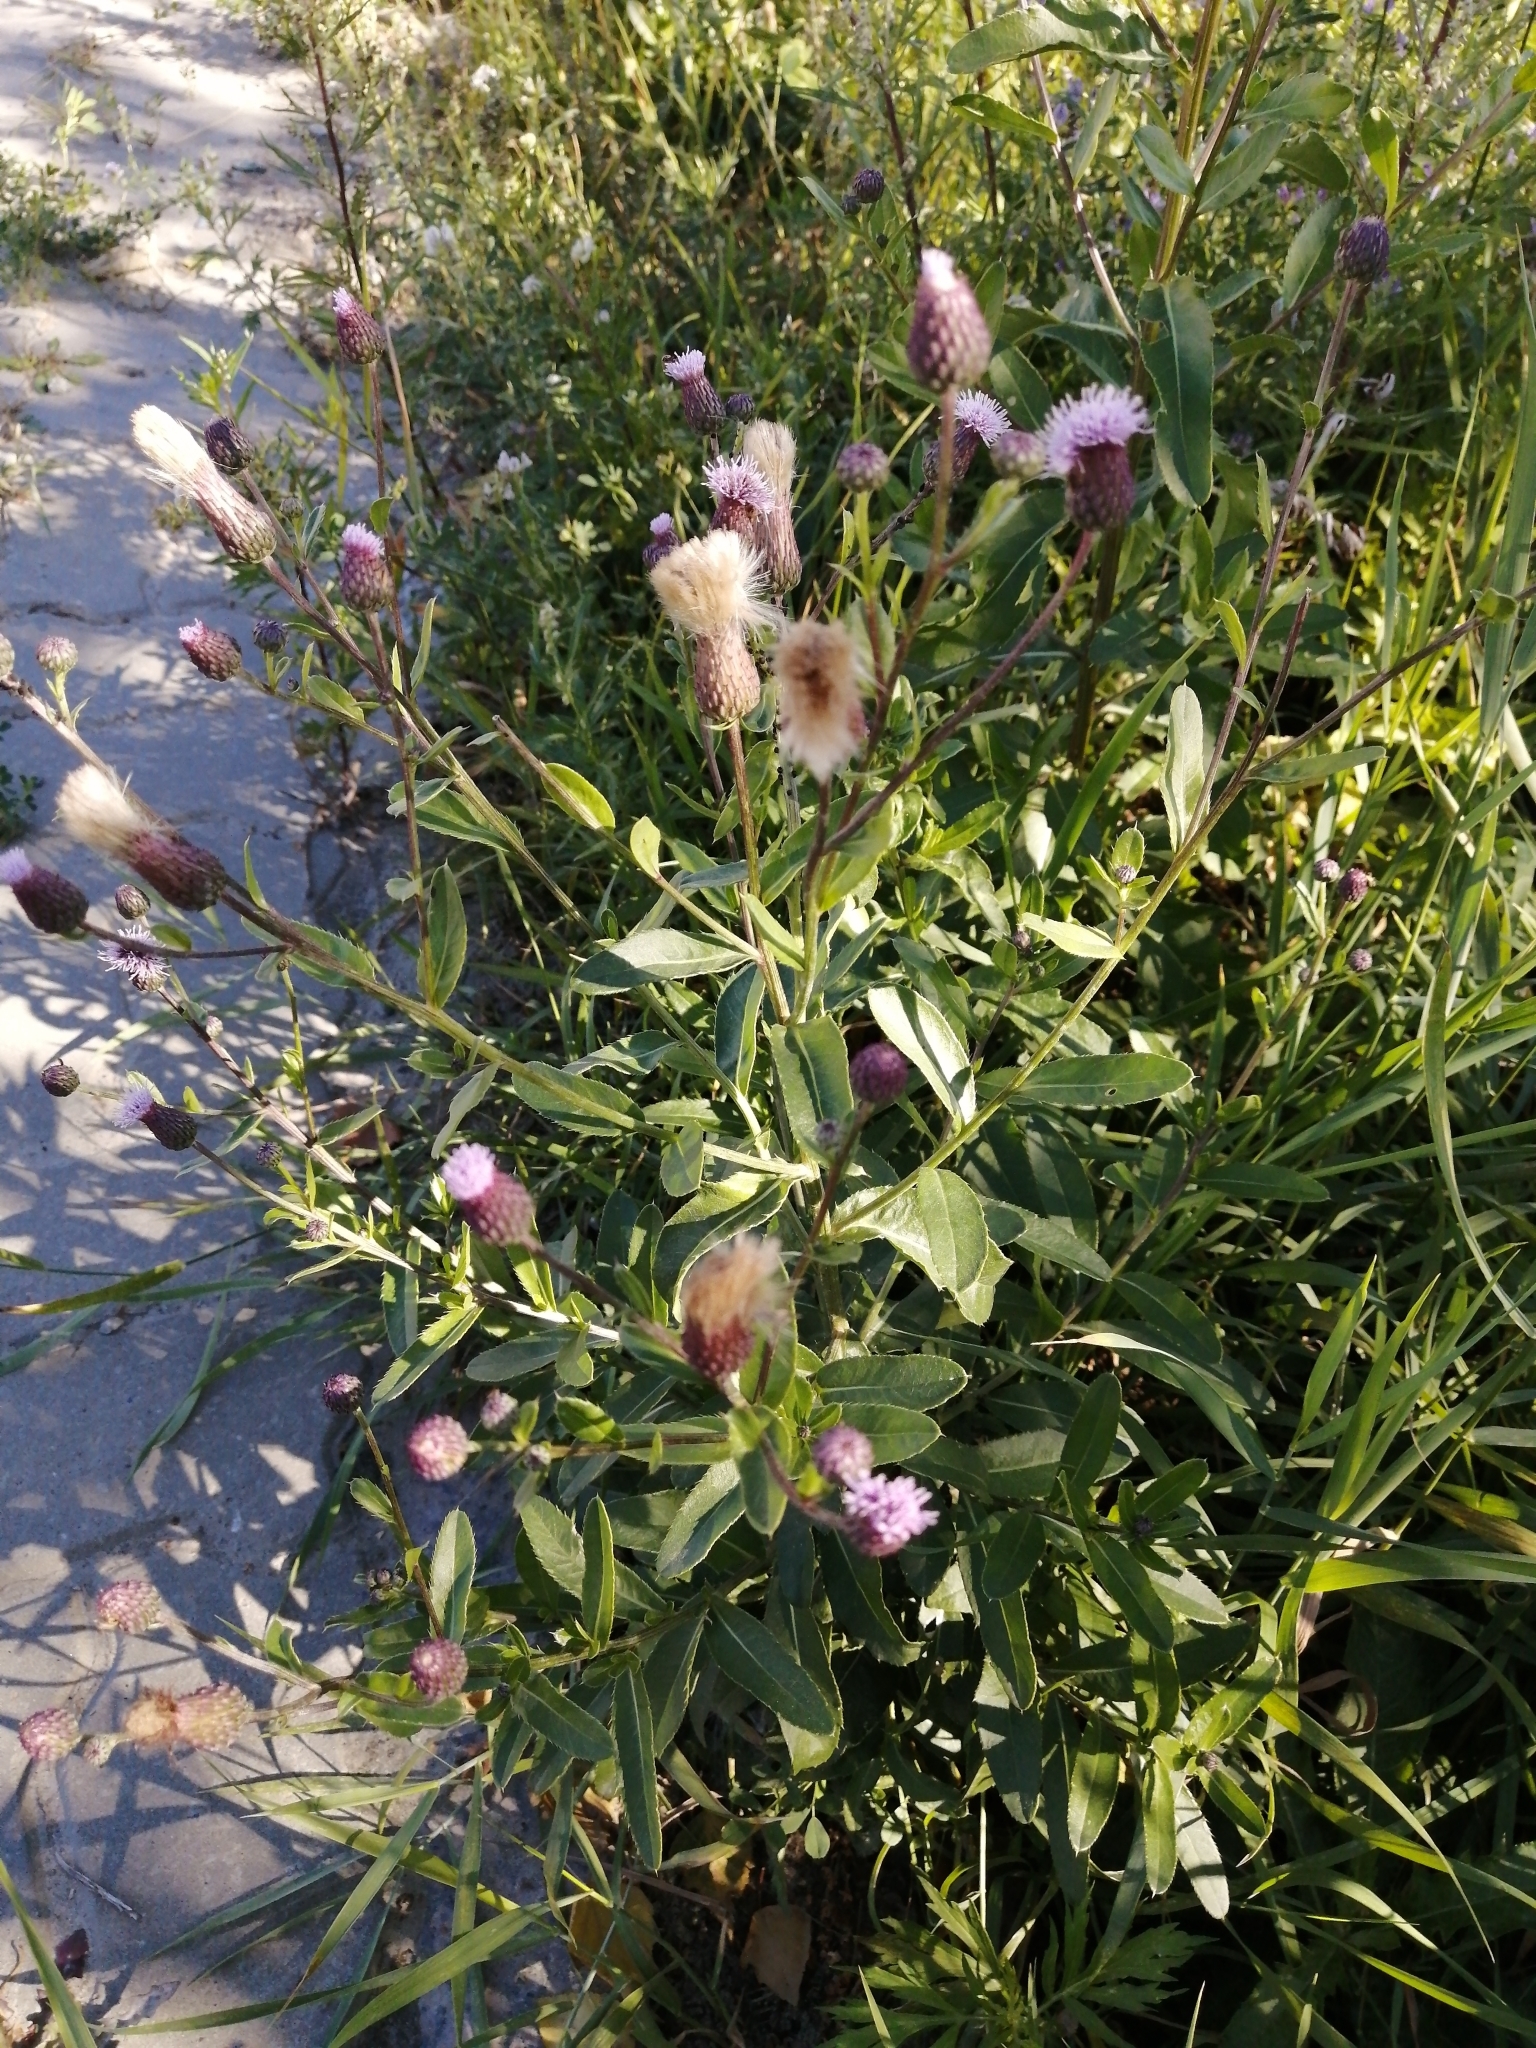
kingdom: Plantae
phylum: Tracheophyta
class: Magnoliopsida
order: Asterales
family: Asteraceae
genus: Cirsium
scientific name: Cirsium arvense
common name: Creeping thistle
